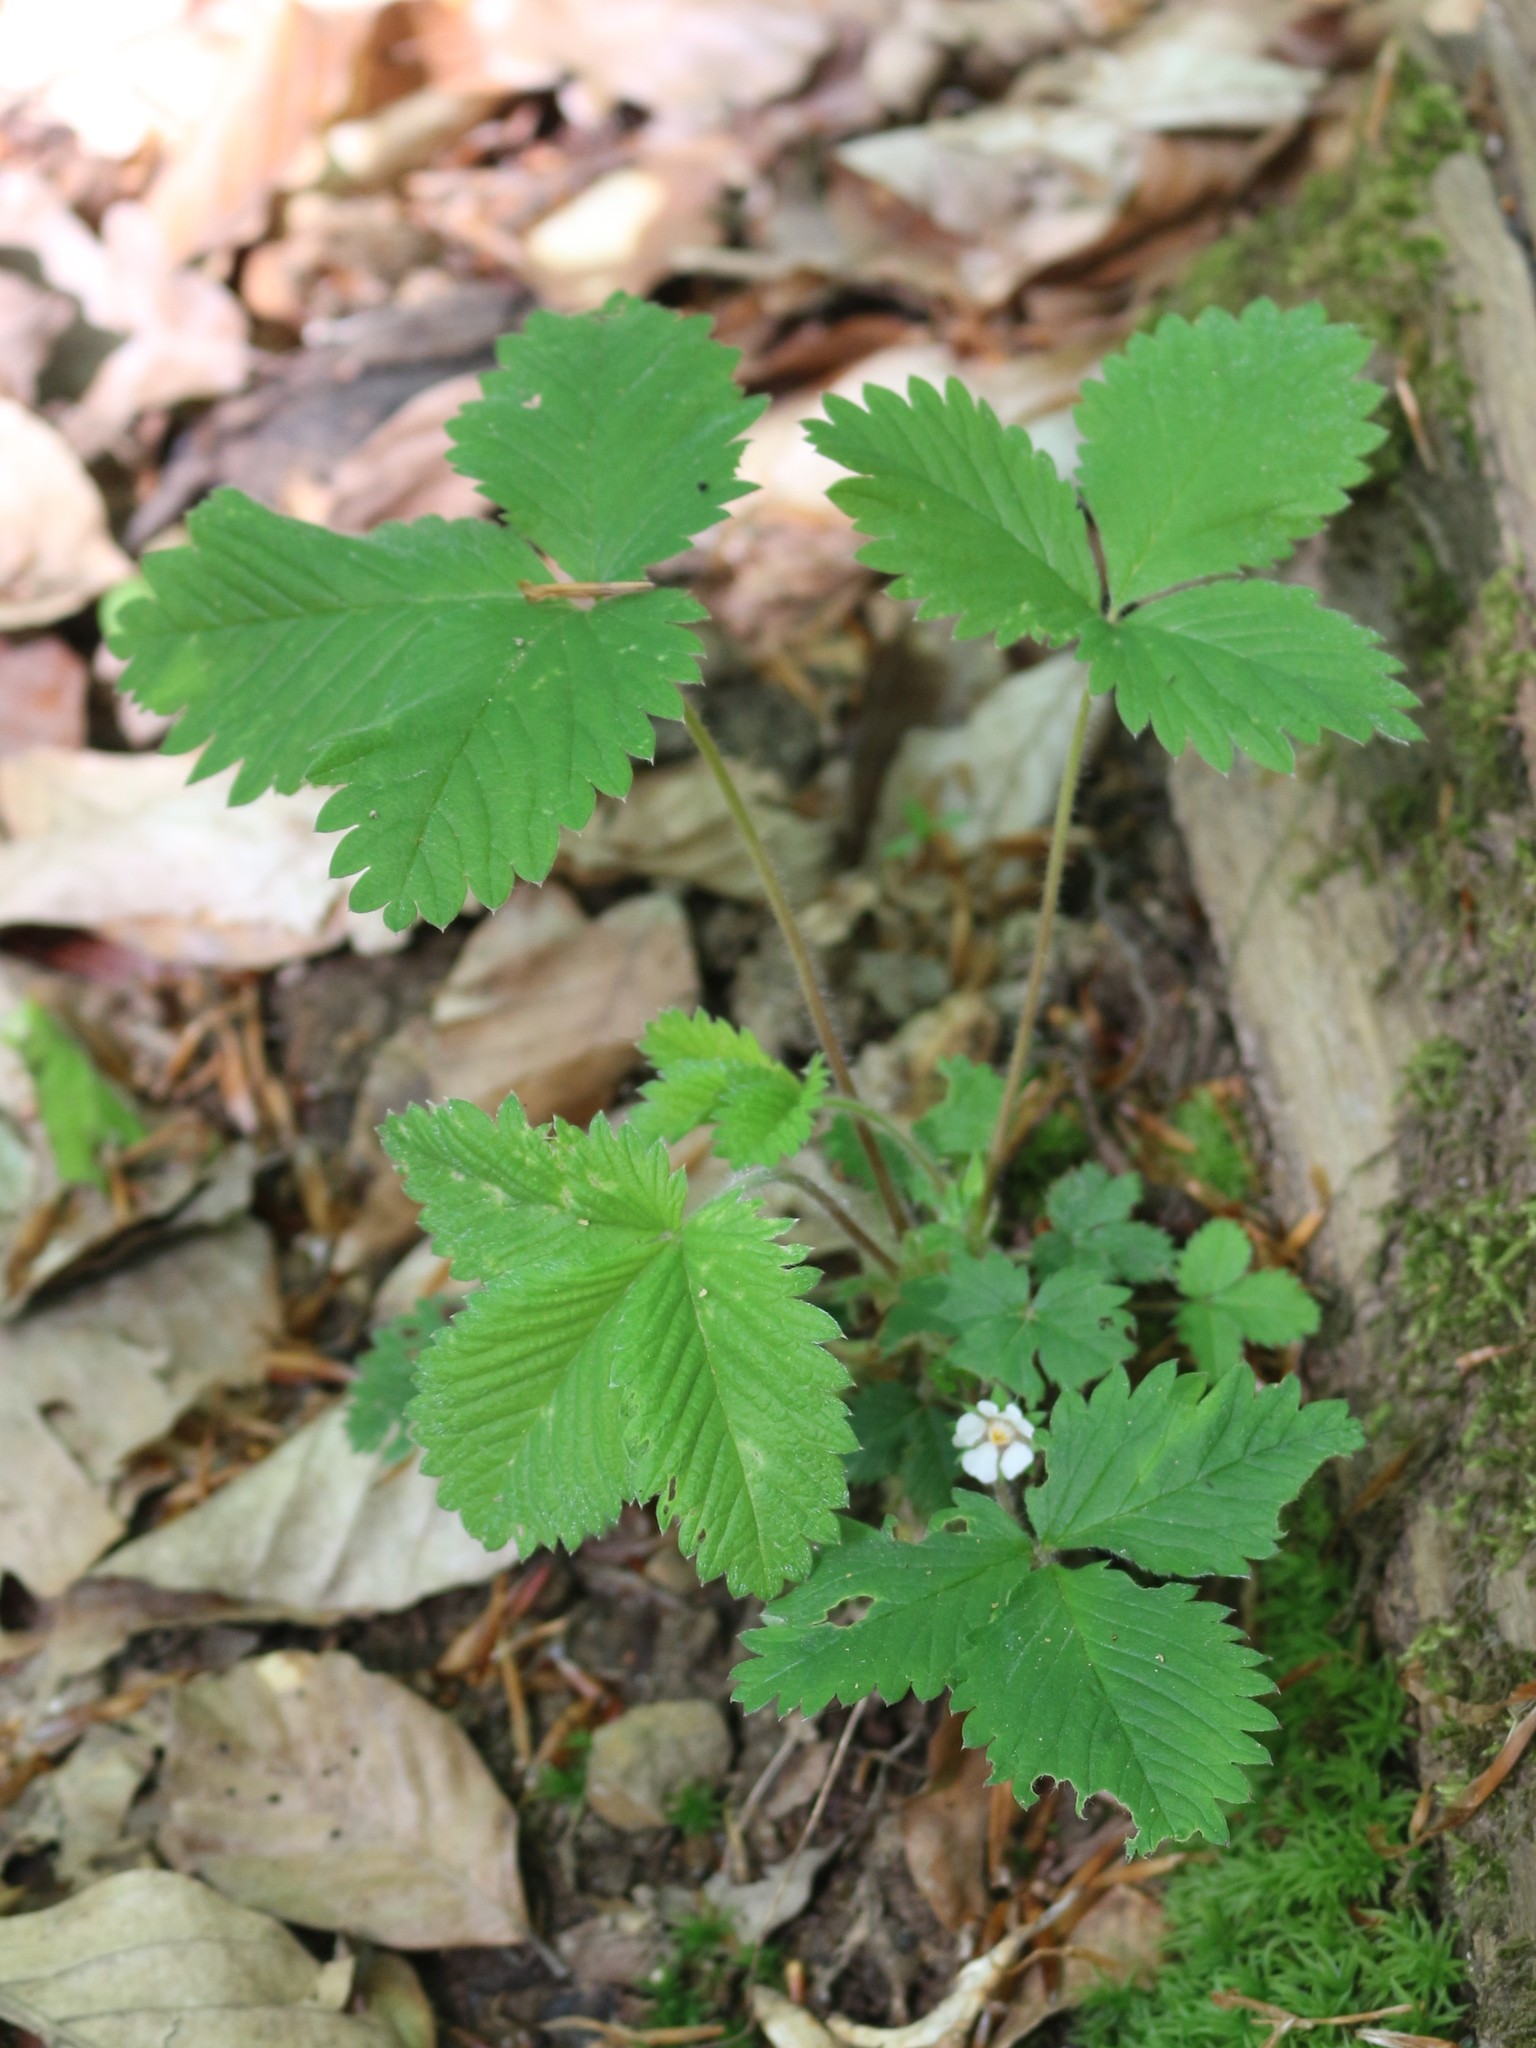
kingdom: Plantae
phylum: Tracheophyta
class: Magnoliopsida
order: Rosales
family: Rosaceae
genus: Potentilla
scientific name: Potentilla micrantha
